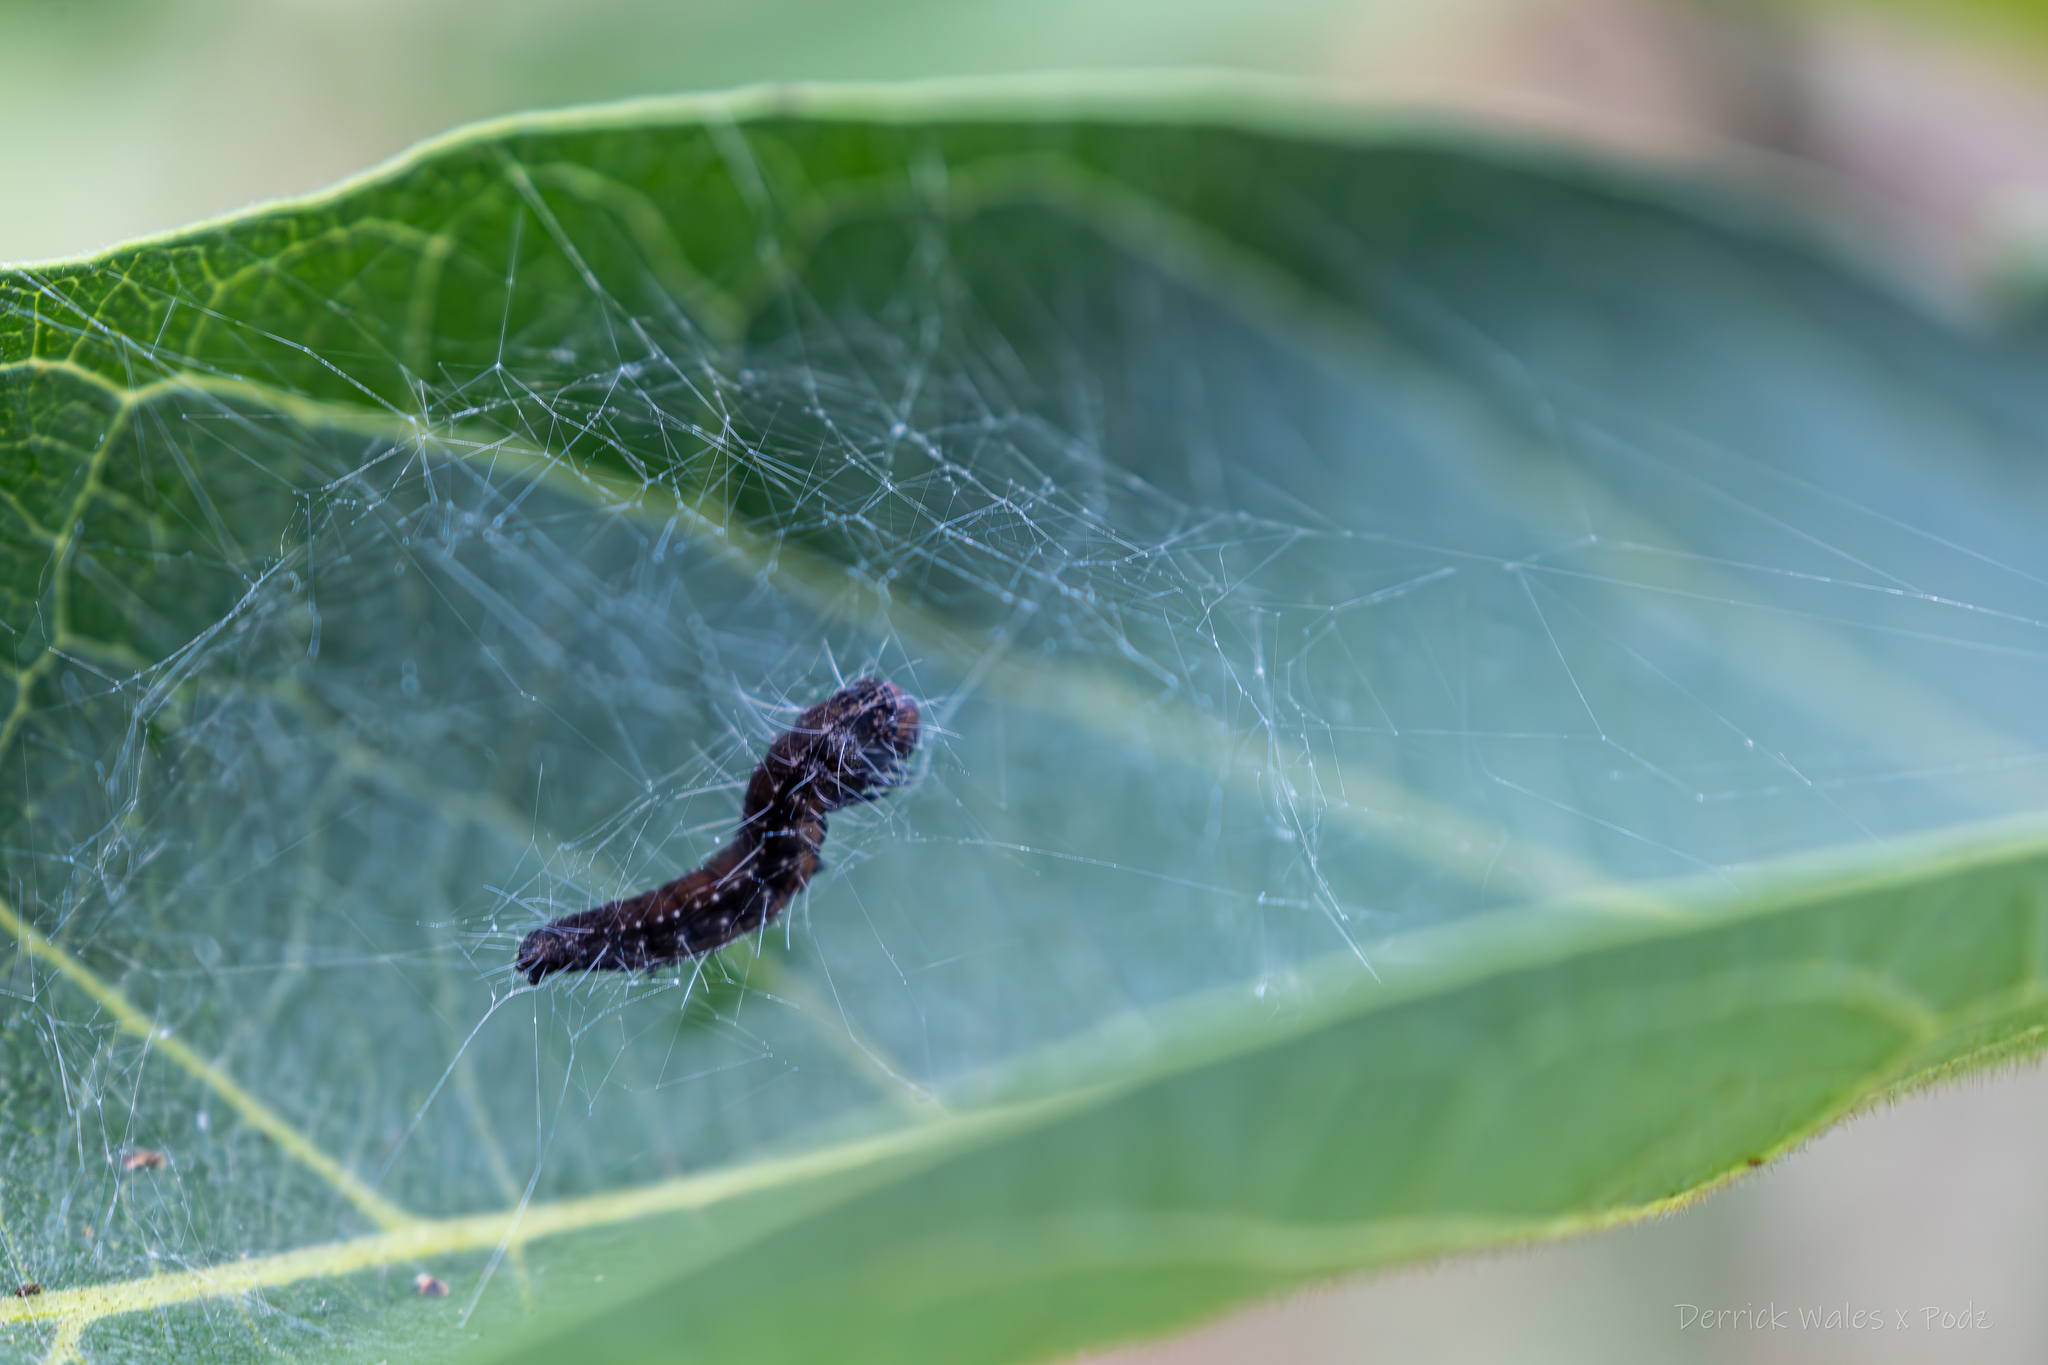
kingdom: Animalia
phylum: Arthropoda
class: Insecta
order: Lepidoptera
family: Attevidae
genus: Atteva
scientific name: Atteva punctella
